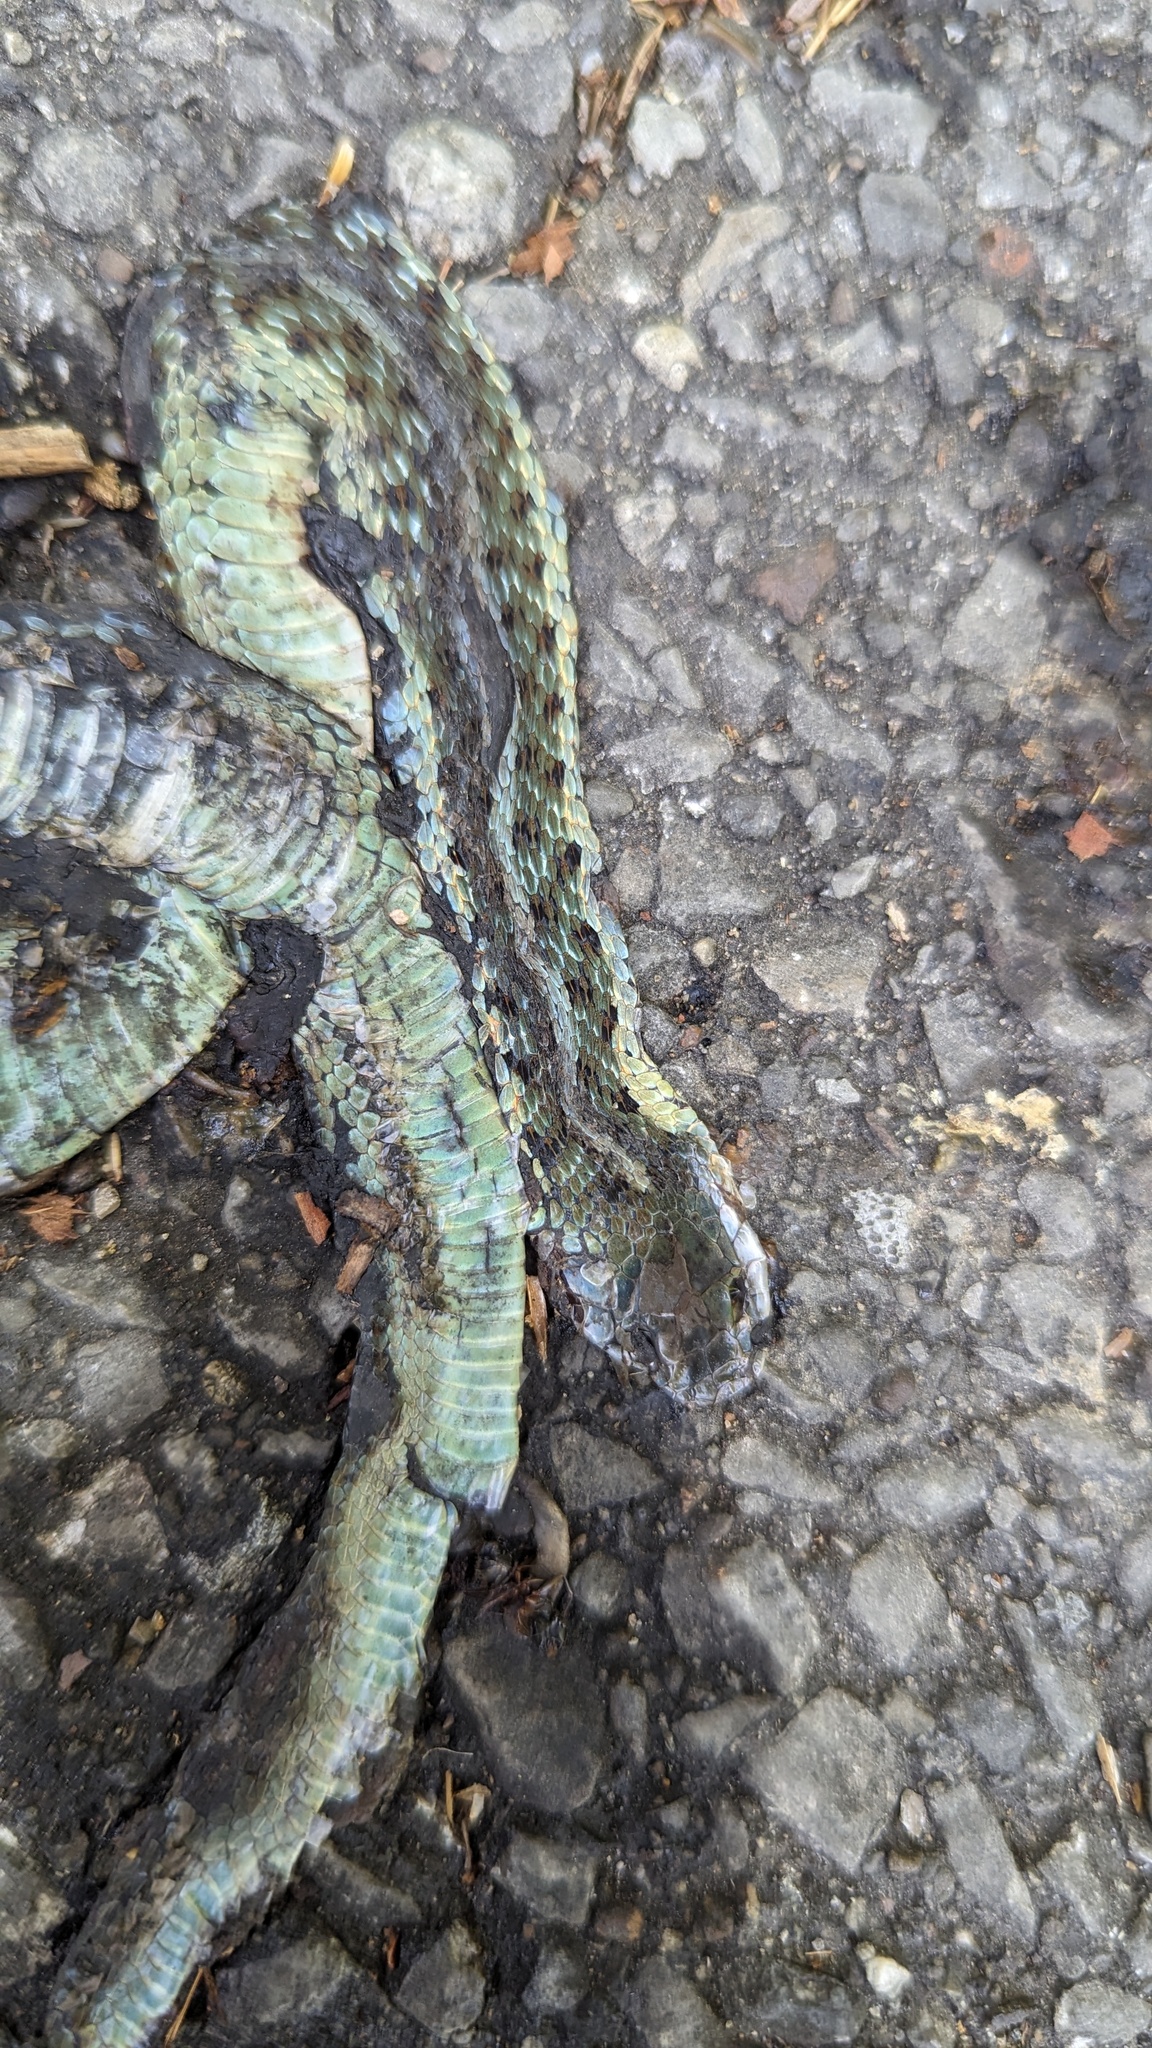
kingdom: Animalia
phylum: Chordata
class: Squamata
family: Colubridae
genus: Thamnophis
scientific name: Thamnophis sirtalis
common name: Common garter snake
